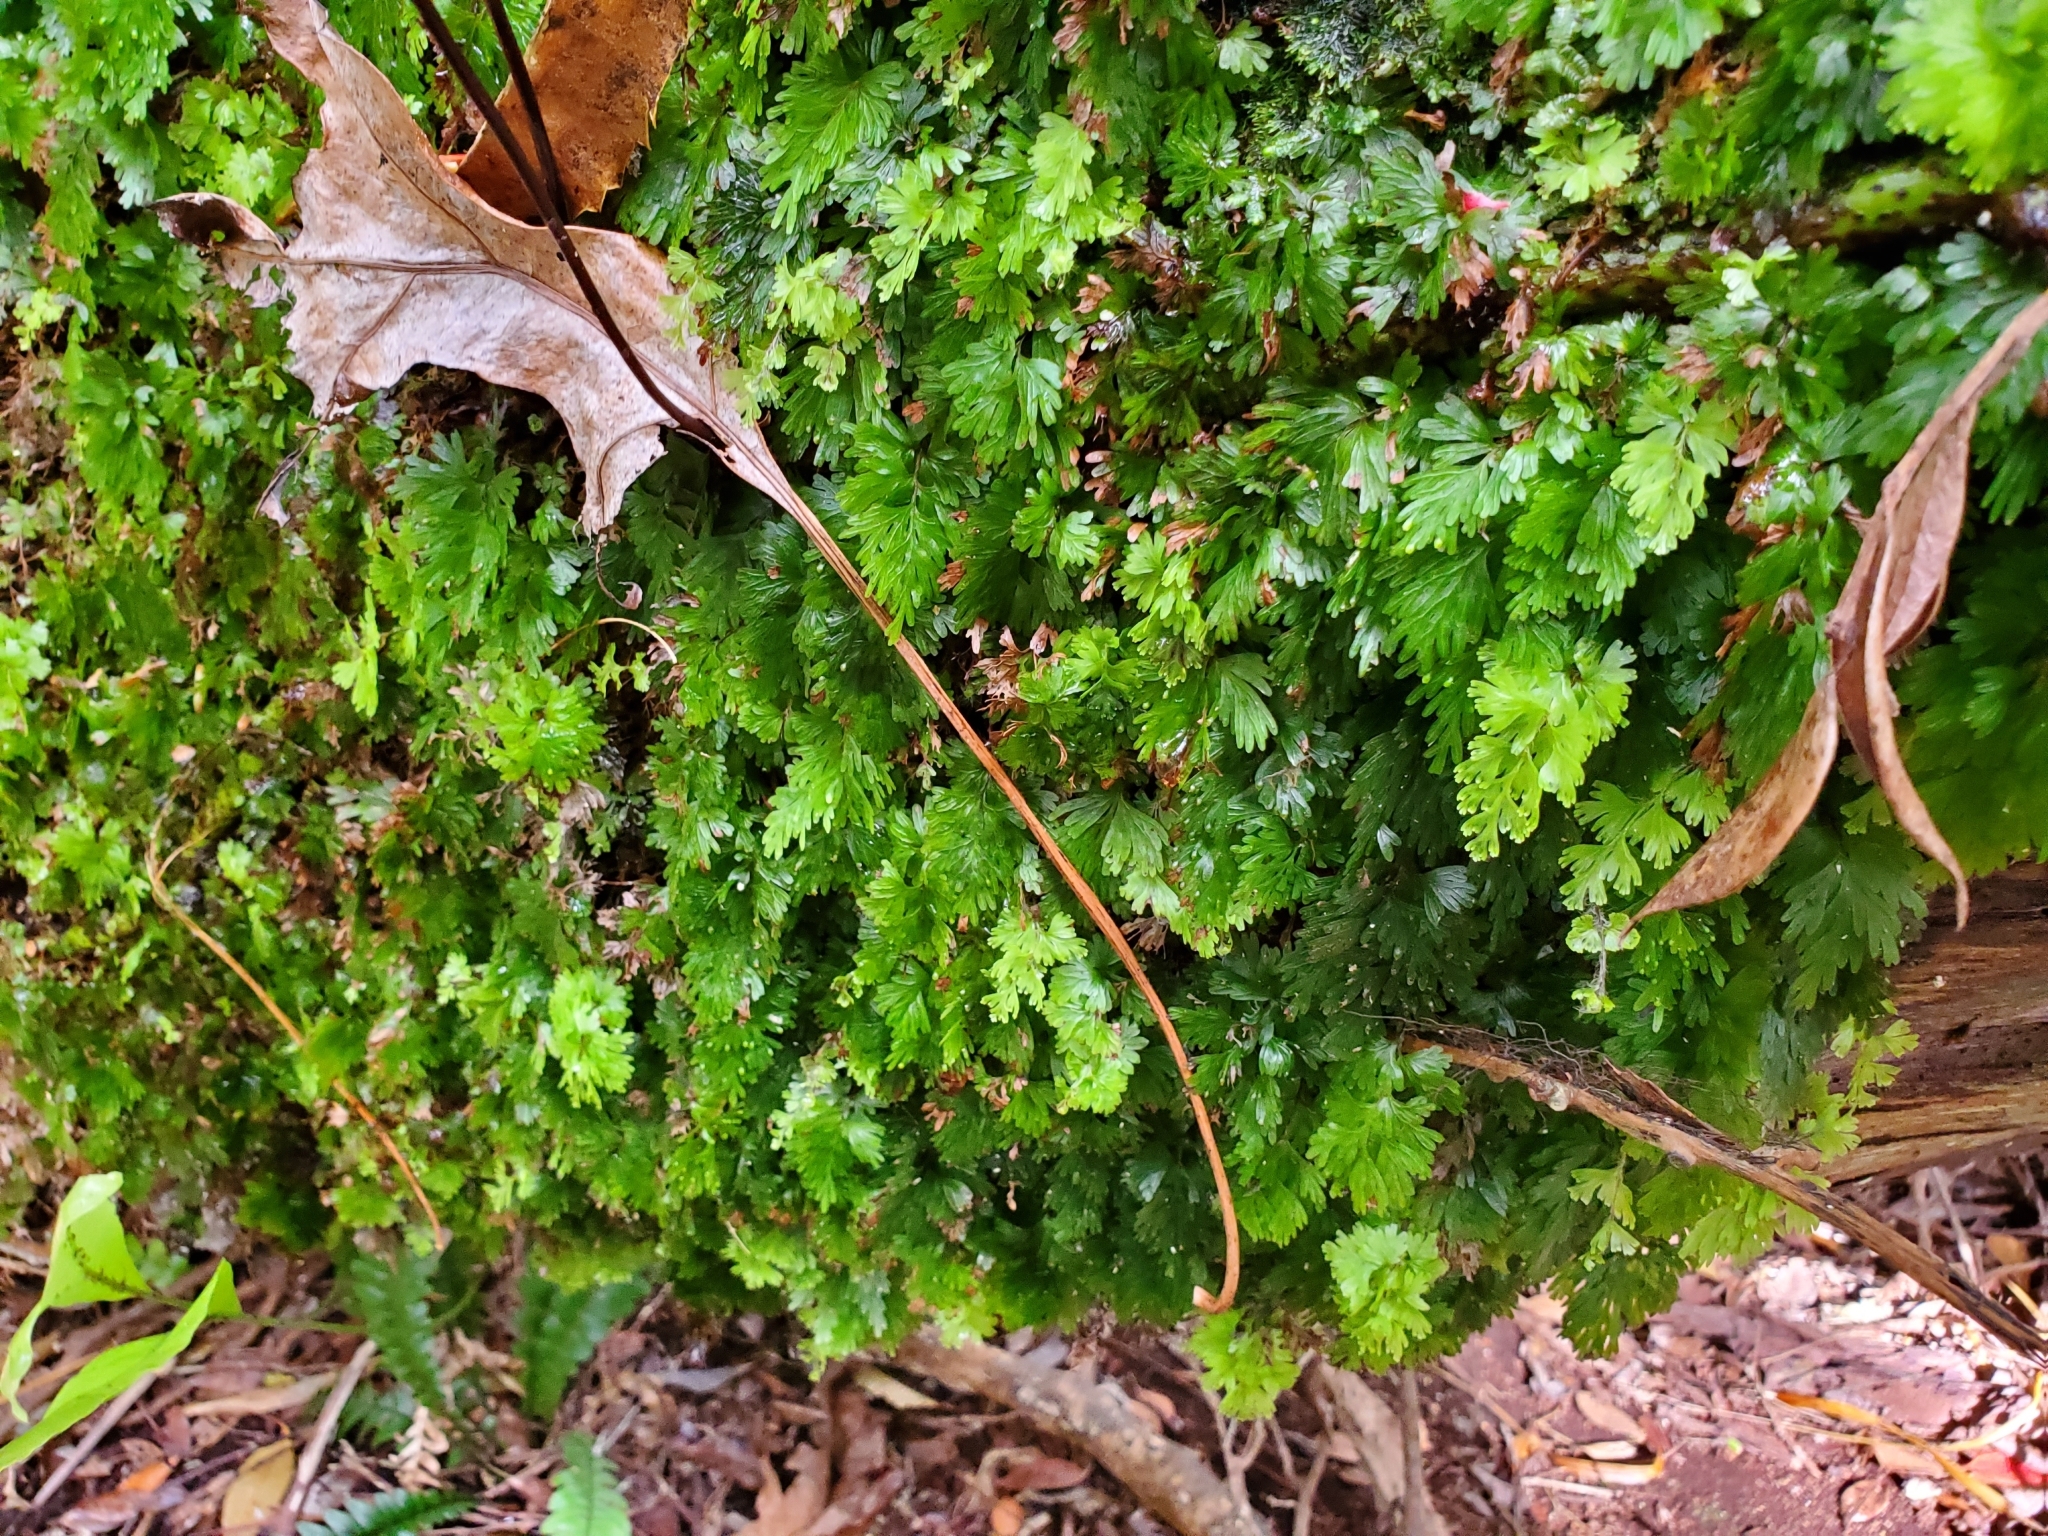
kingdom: Plantae
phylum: Tracheophyta
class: Polypodiopsida
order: Hymenophyllales
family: Hymenophyllaceae
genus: Hymenophyllum
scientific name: Hymenophyllum flabellatum
